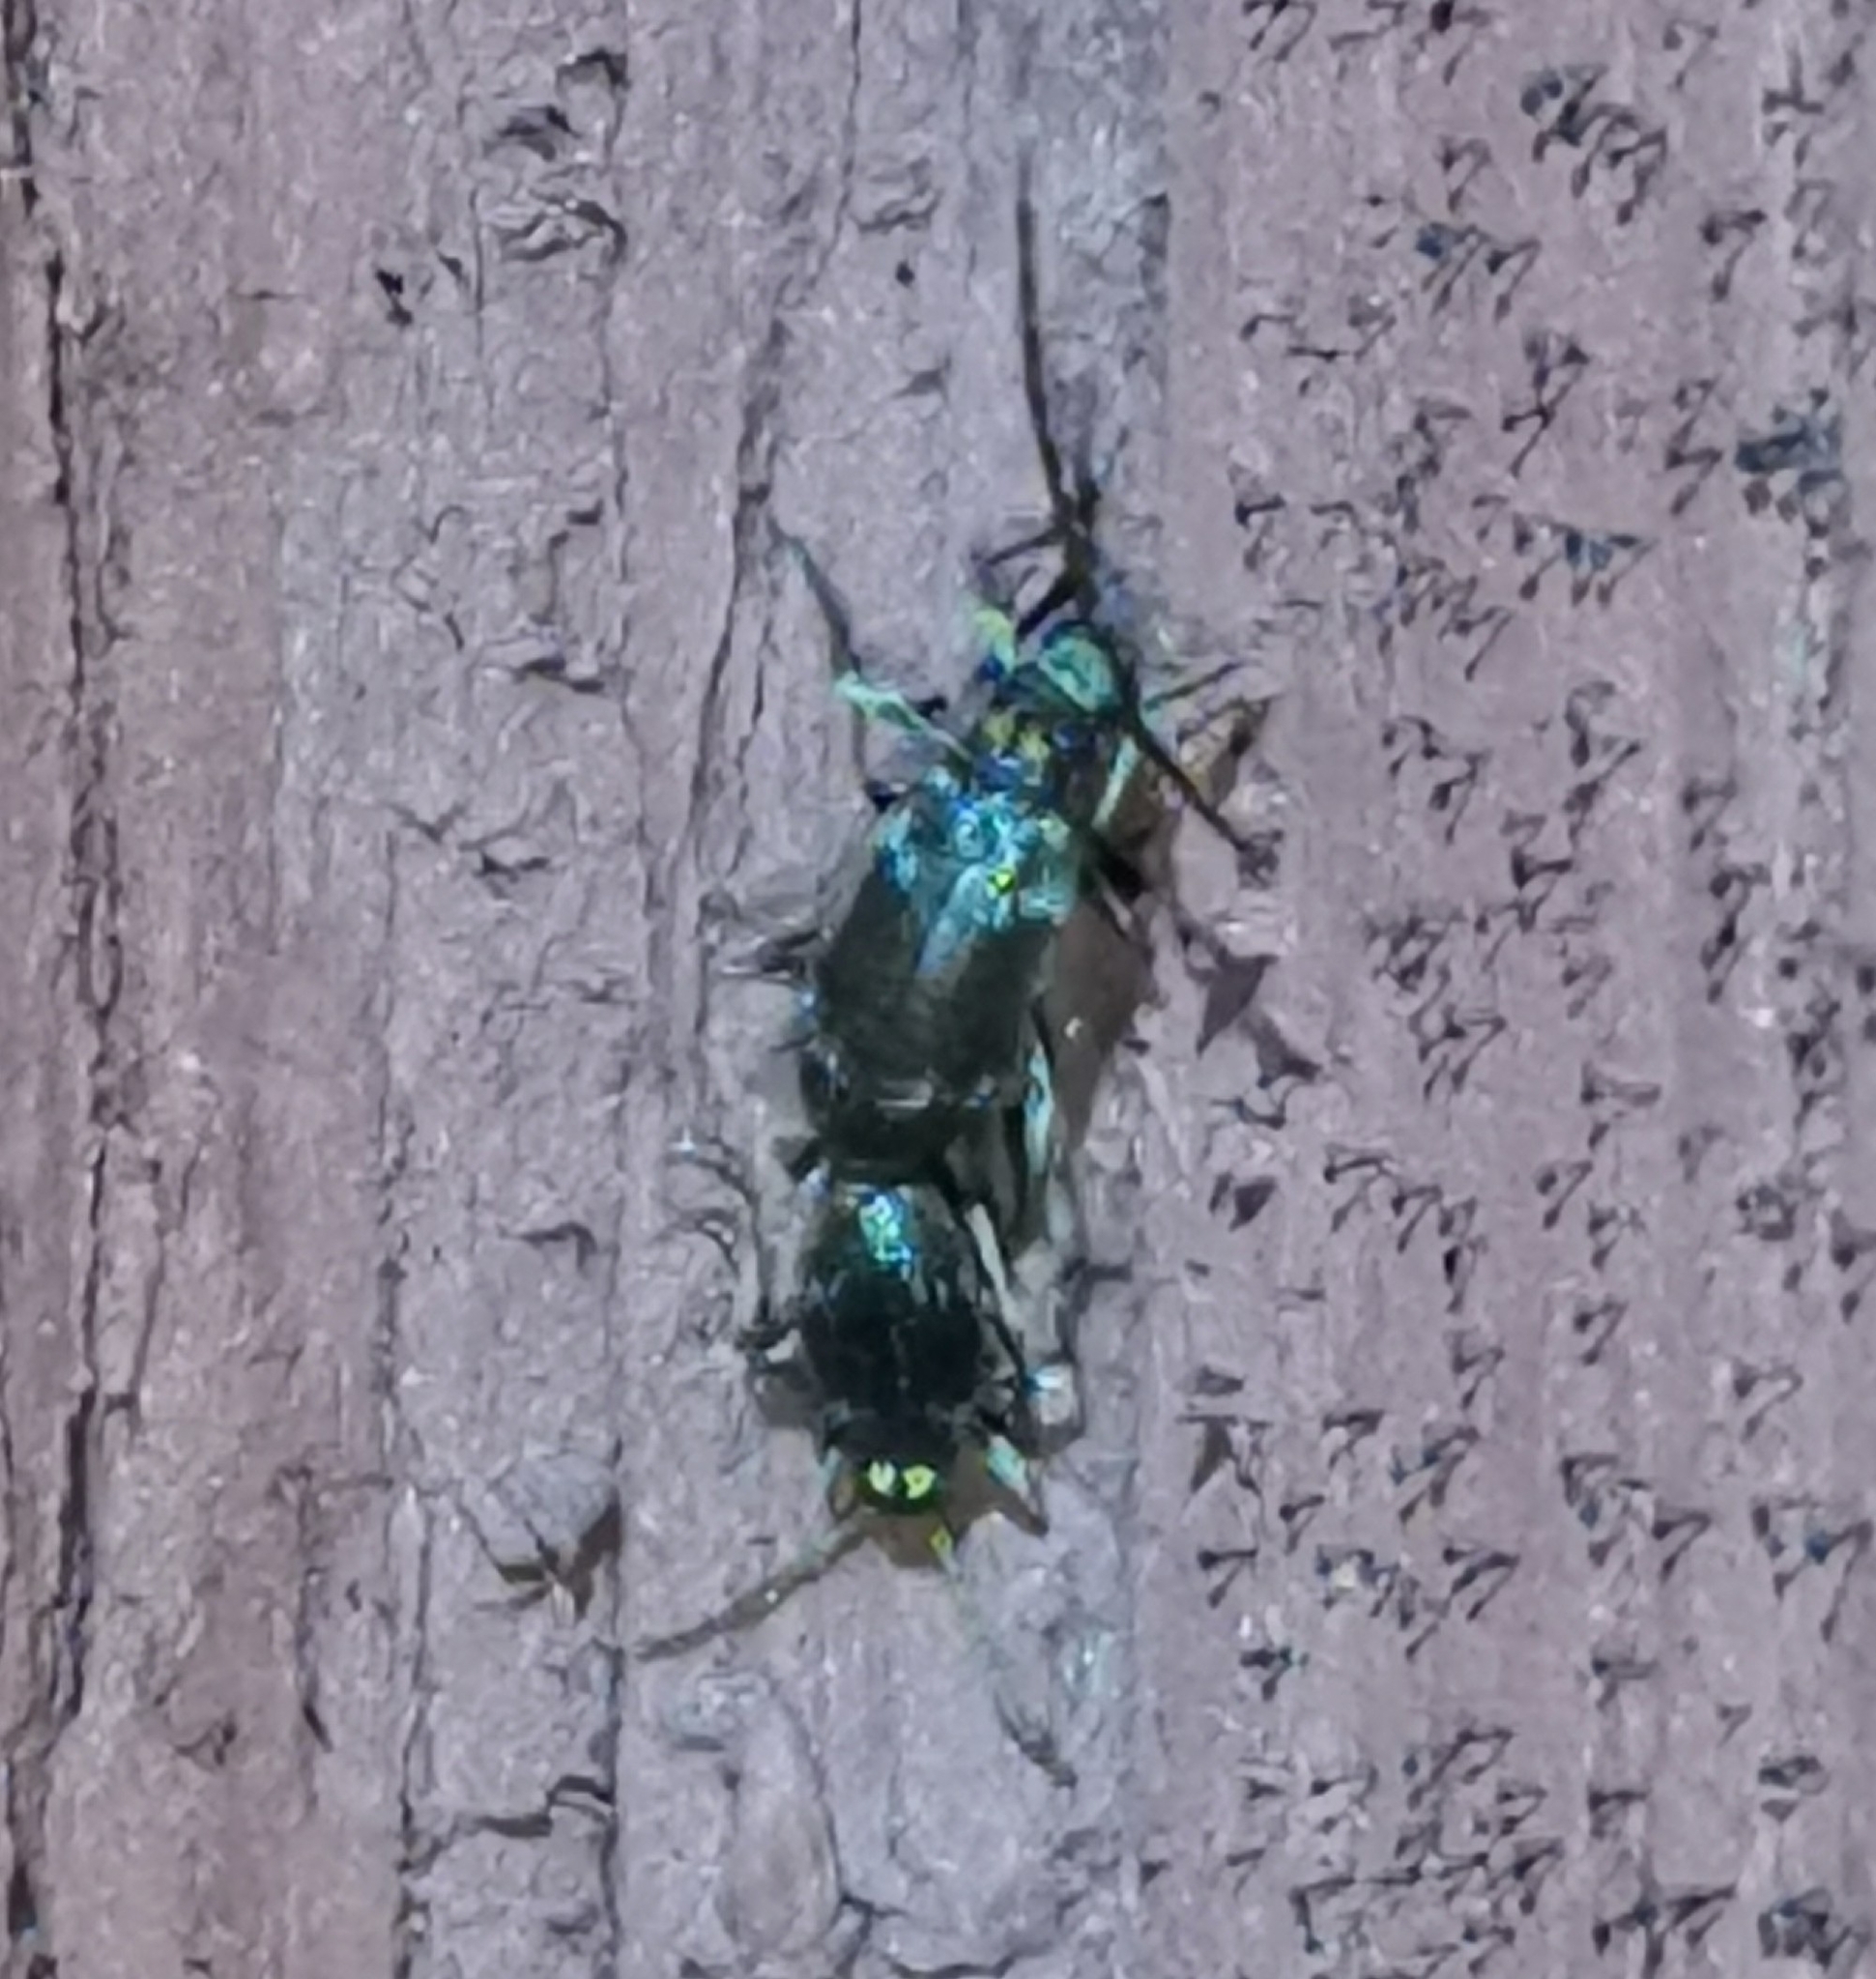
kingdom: Animalia
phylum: Arthropoda
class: Insecta
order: Coleoptera
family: Ptinidae
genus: Ptinus
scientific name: Ptinus raptor
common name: Eastern spider beetle
